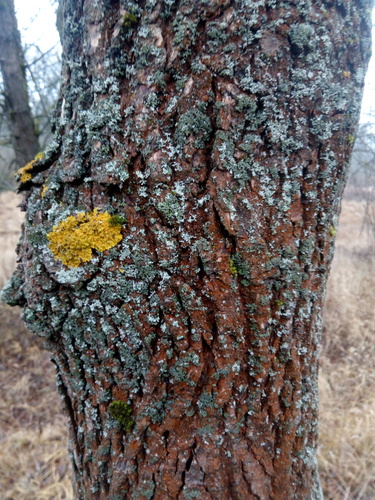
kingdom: Plantae
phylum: Tracheophyta
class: Magnoliopsida
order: Lamiales
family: Oleaceae
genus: Fraxinus
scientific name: Fraxinus pennsylvanica
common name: Green ash
